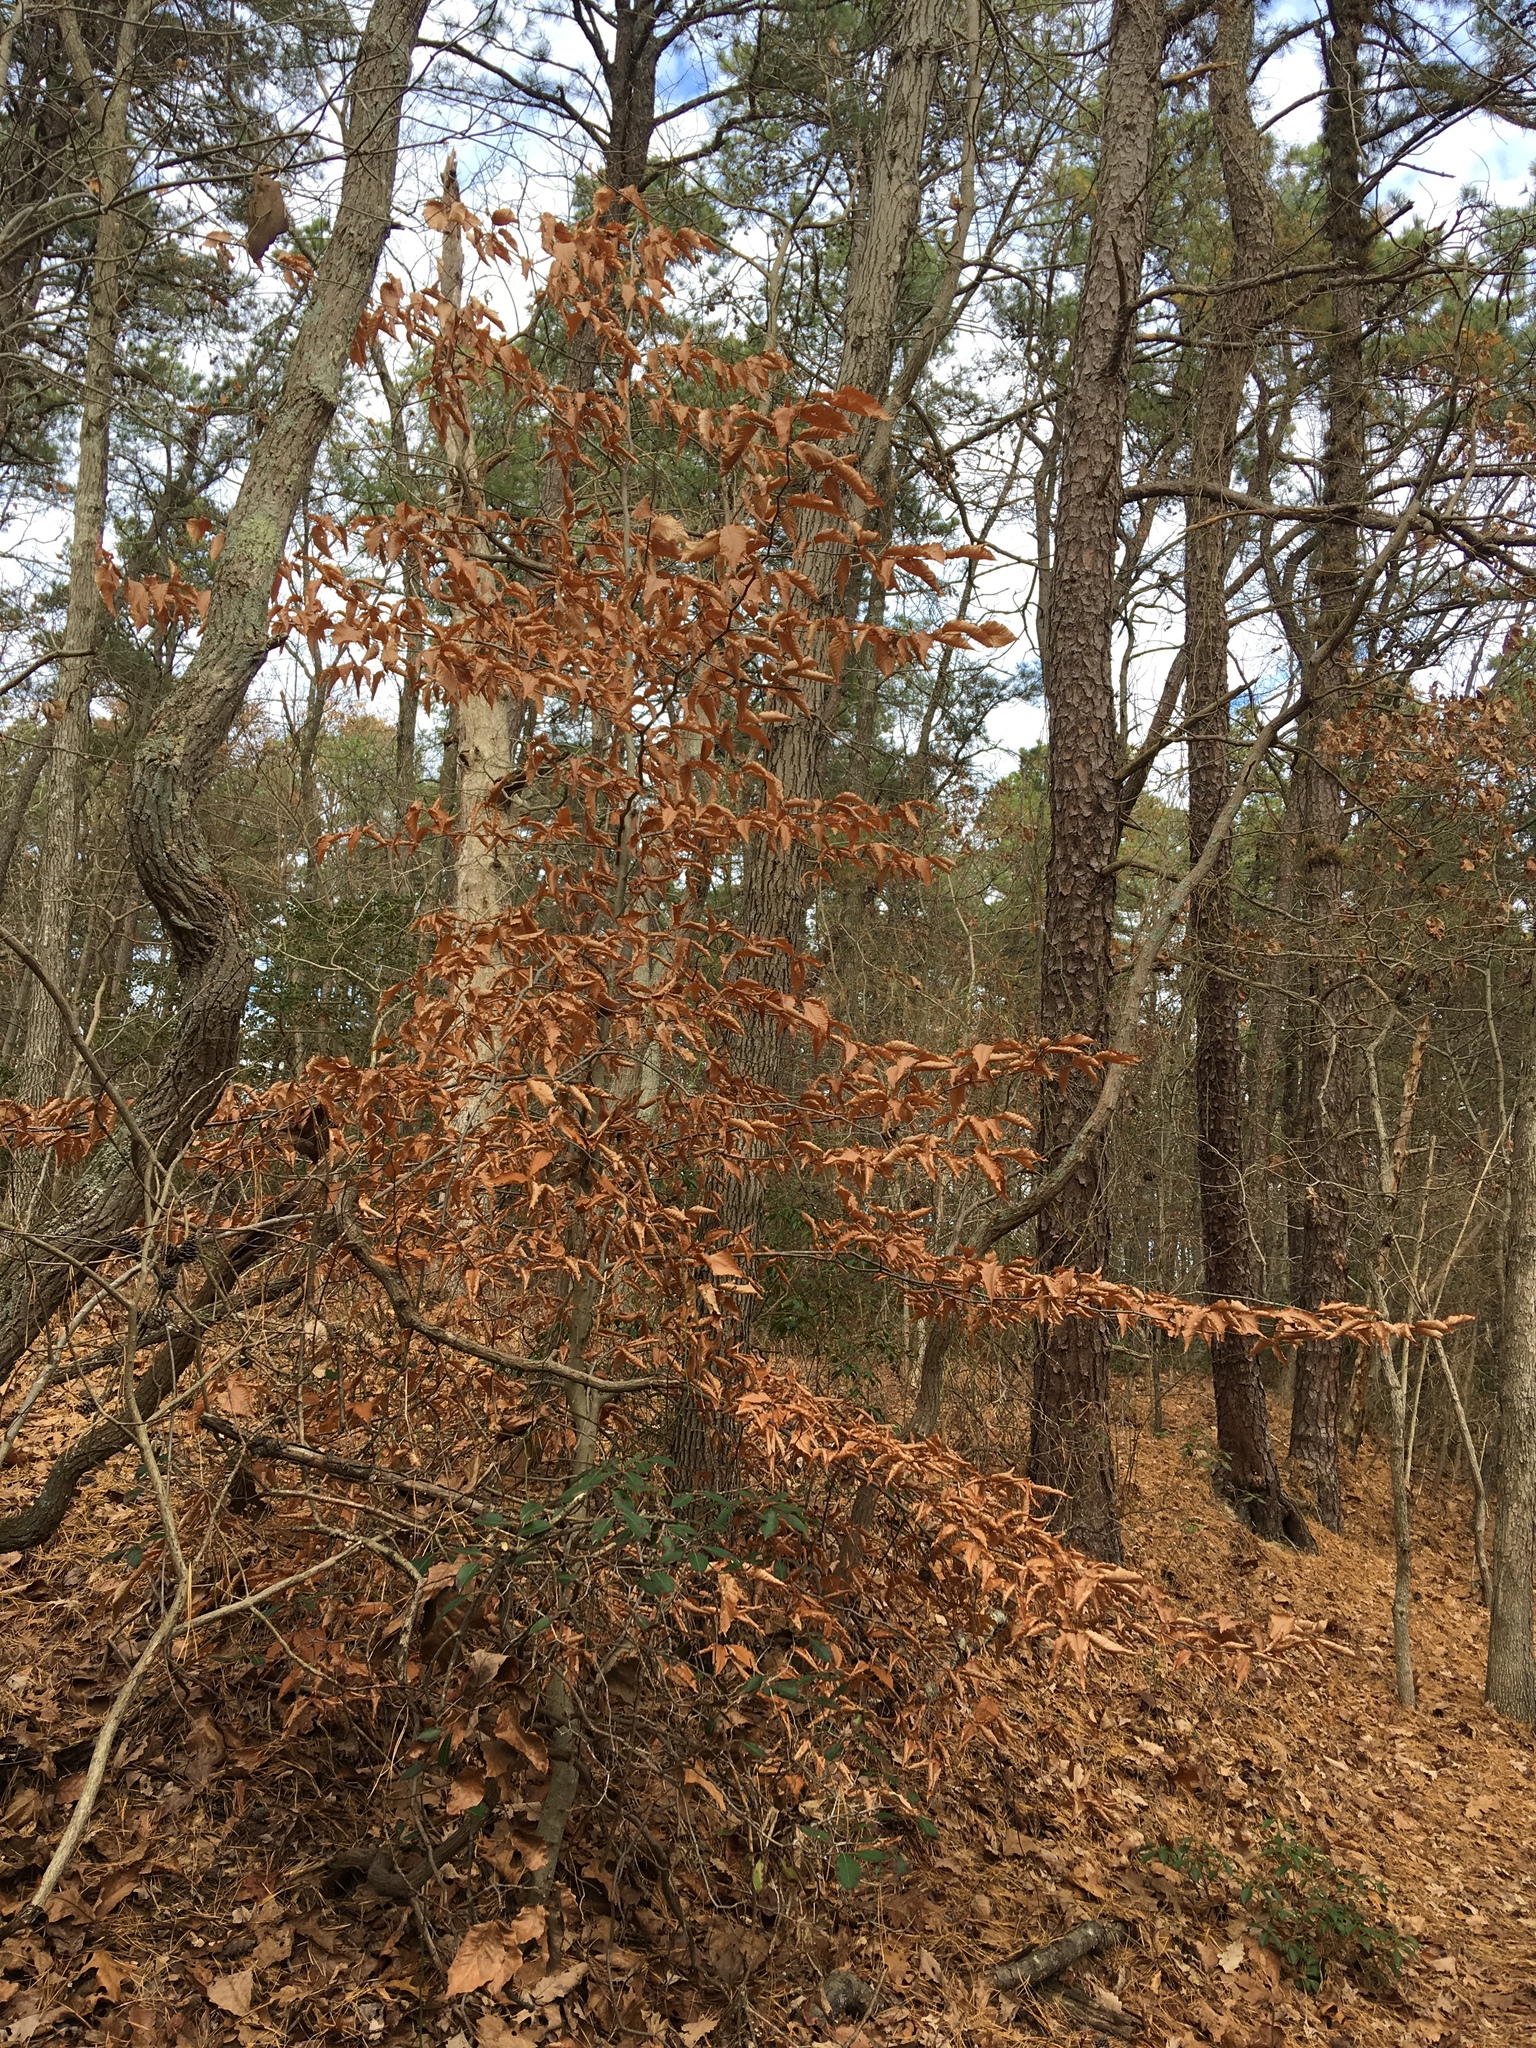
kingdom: Plantae
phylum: Tracheophyta
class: Magnoliopsida
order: Fagales
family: Fagaceae
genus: Fagus
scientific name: Fagus grandifolia
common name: American beech
